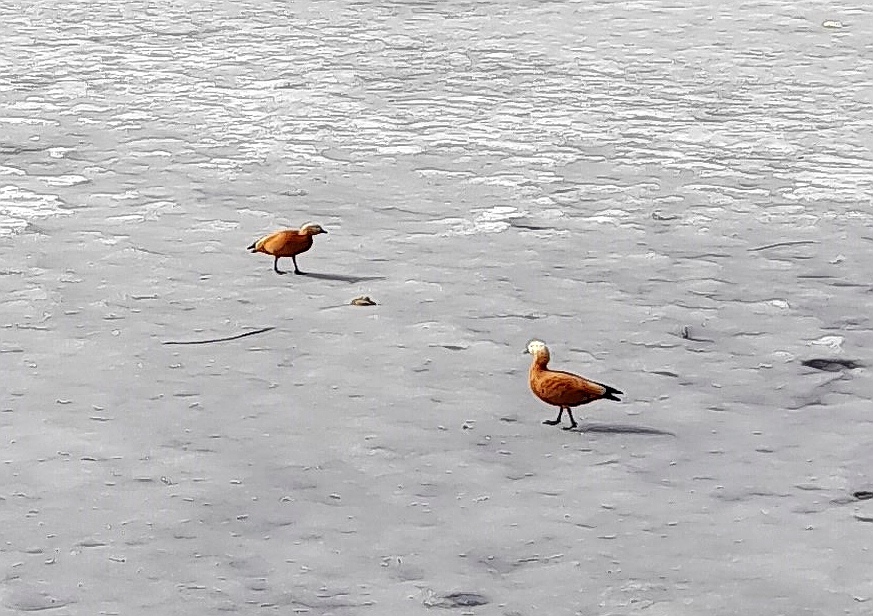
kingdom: Animalia
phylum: Chordata
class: Aves
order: Anseriformes
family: Anatidae
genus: Tadorna
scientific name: Tadorna ferruginea
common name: Ruddy shelduck
